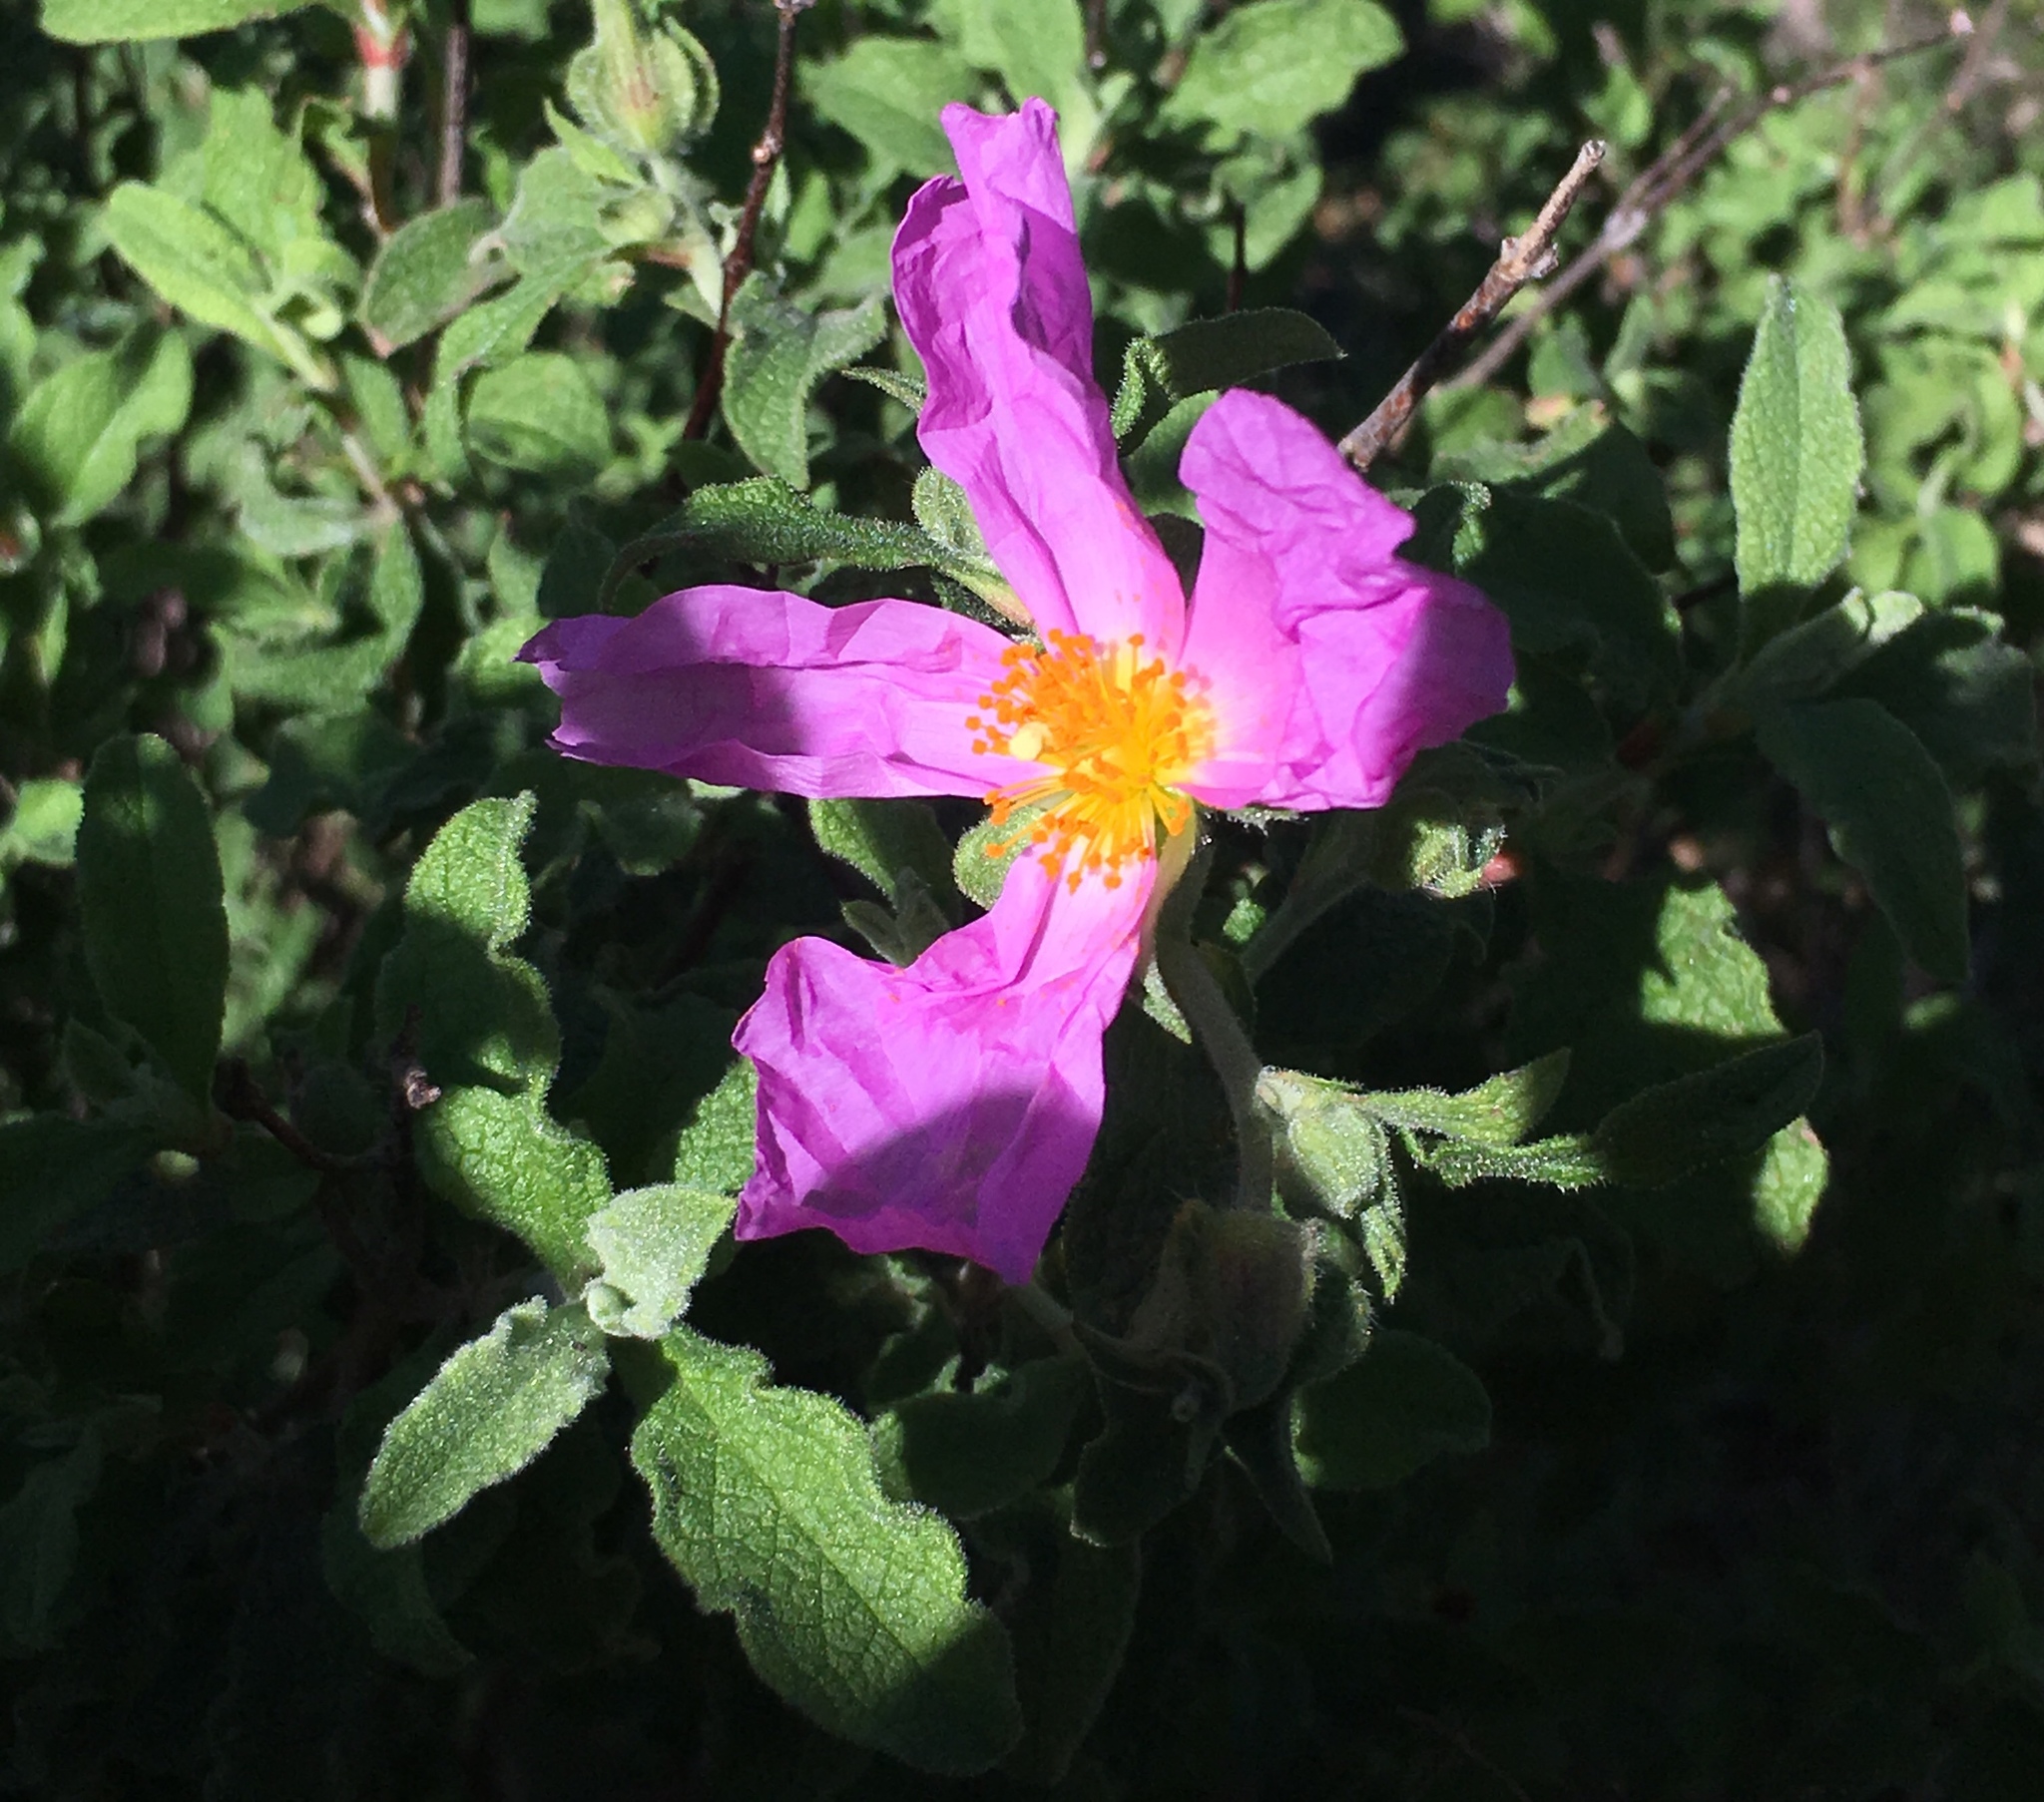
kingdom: Plantae
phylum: Tracheophyta
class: Magnoliopsida
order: Malvales
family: Cistaceae
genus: Cistus
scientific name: Cistus creticus
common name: Cretan rockrose
